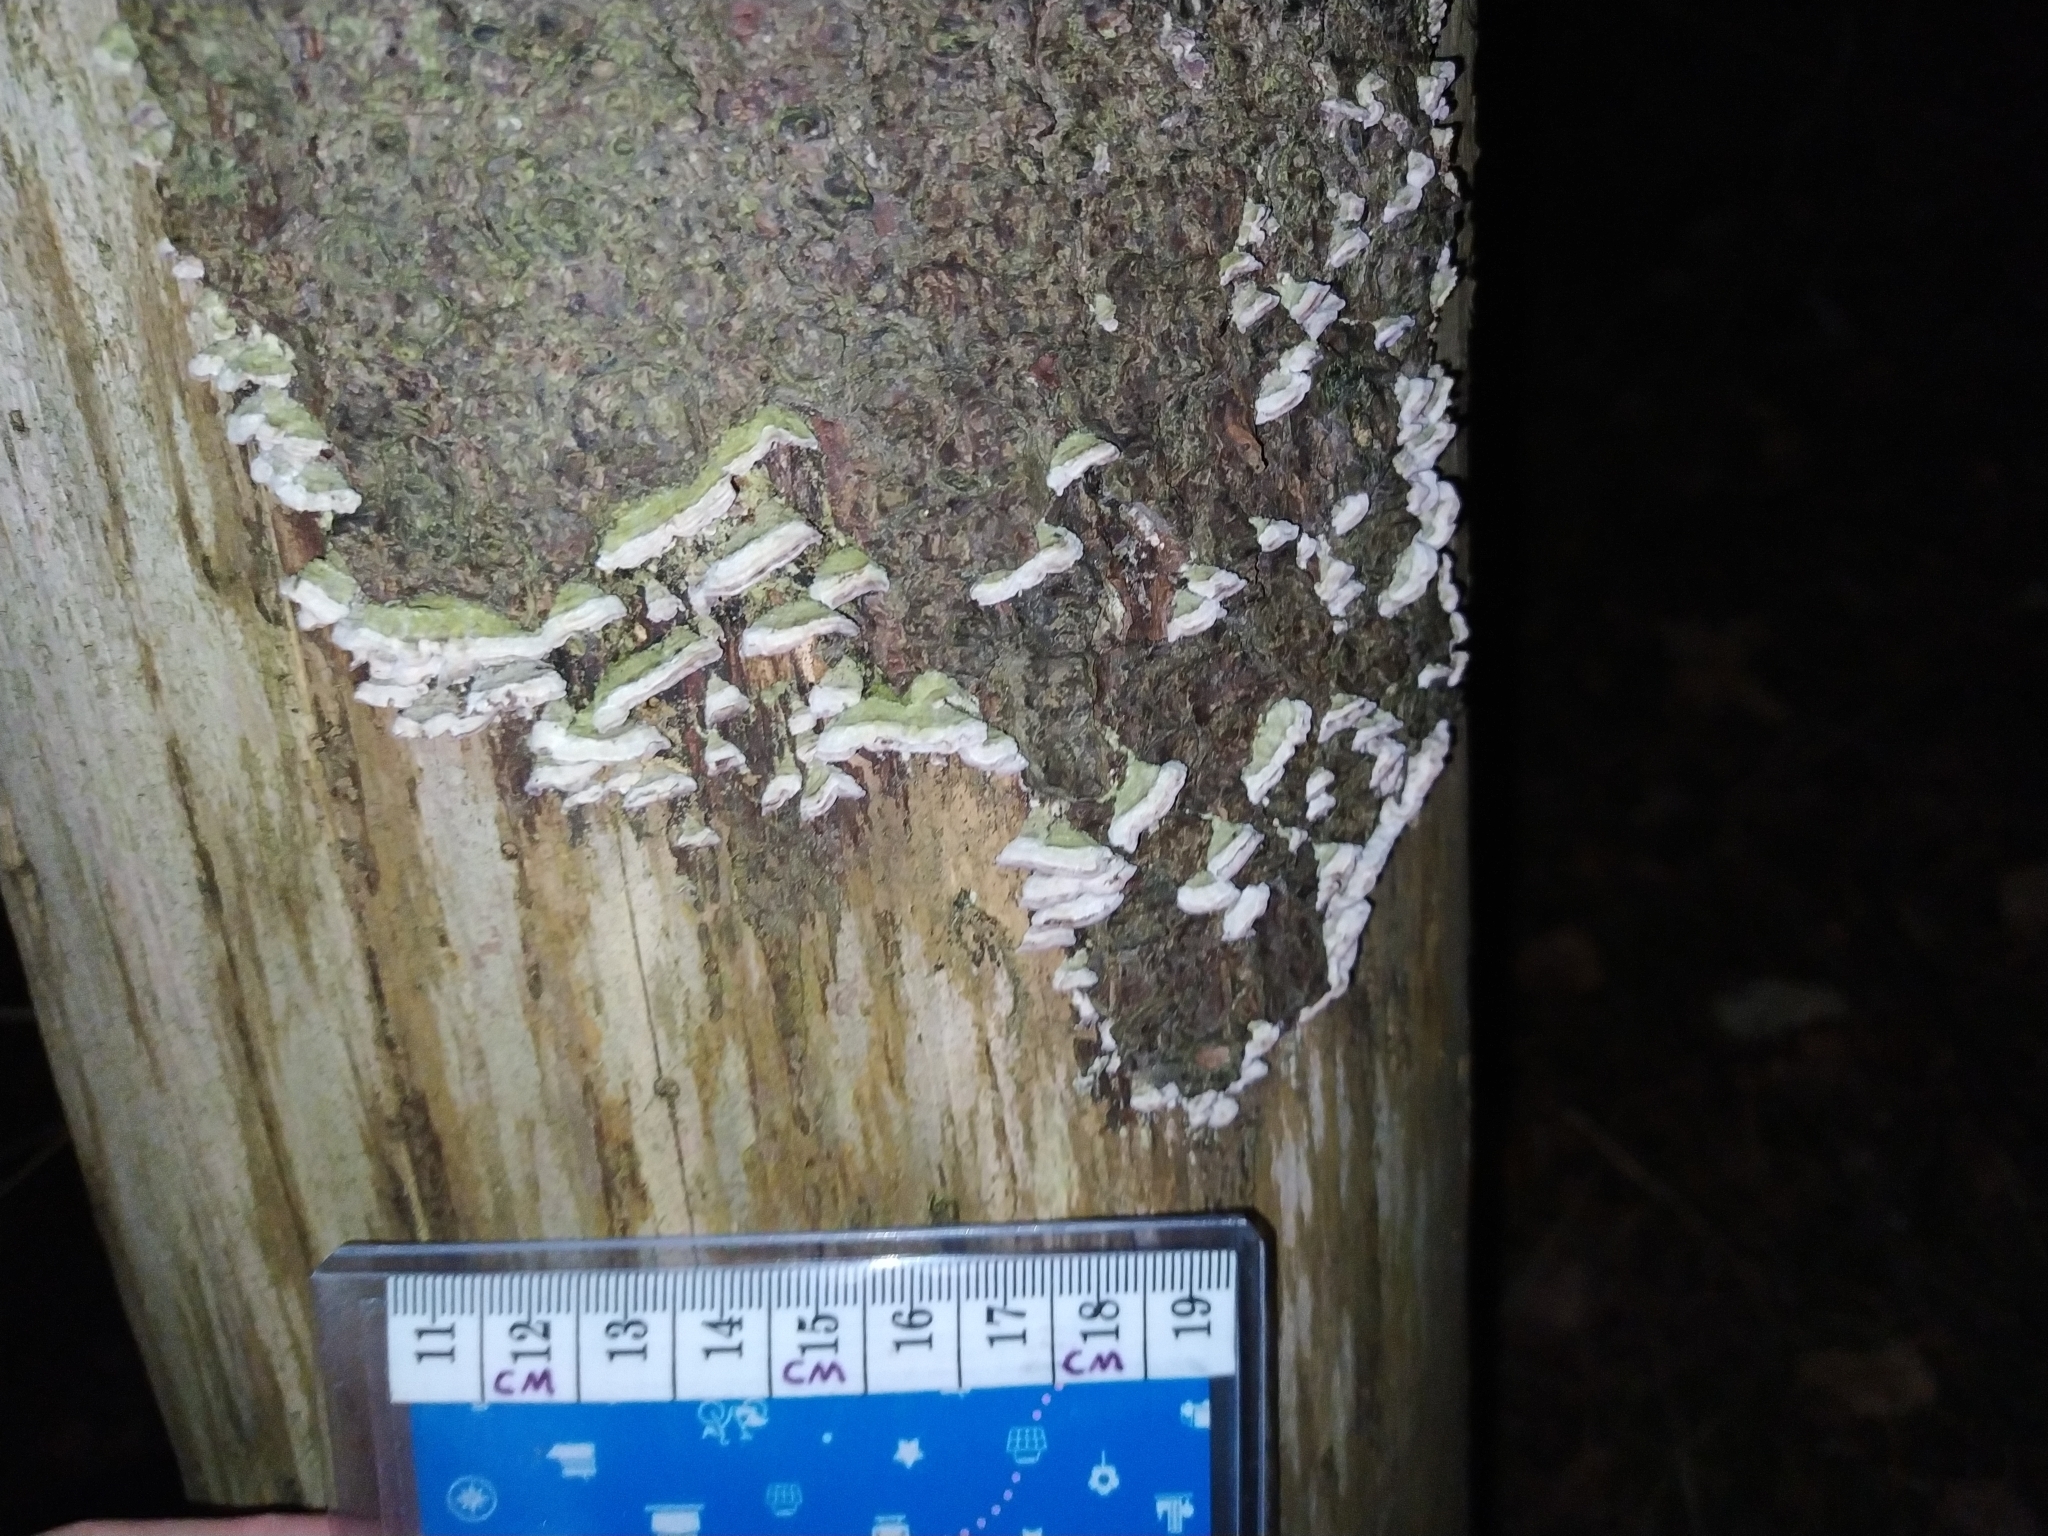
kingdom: Fungi
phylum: Basidiomycota
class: Agaricomycetes
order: Hymenochaetales
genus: Trichaptum
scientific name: Trichaptum fuscoviolaceum
